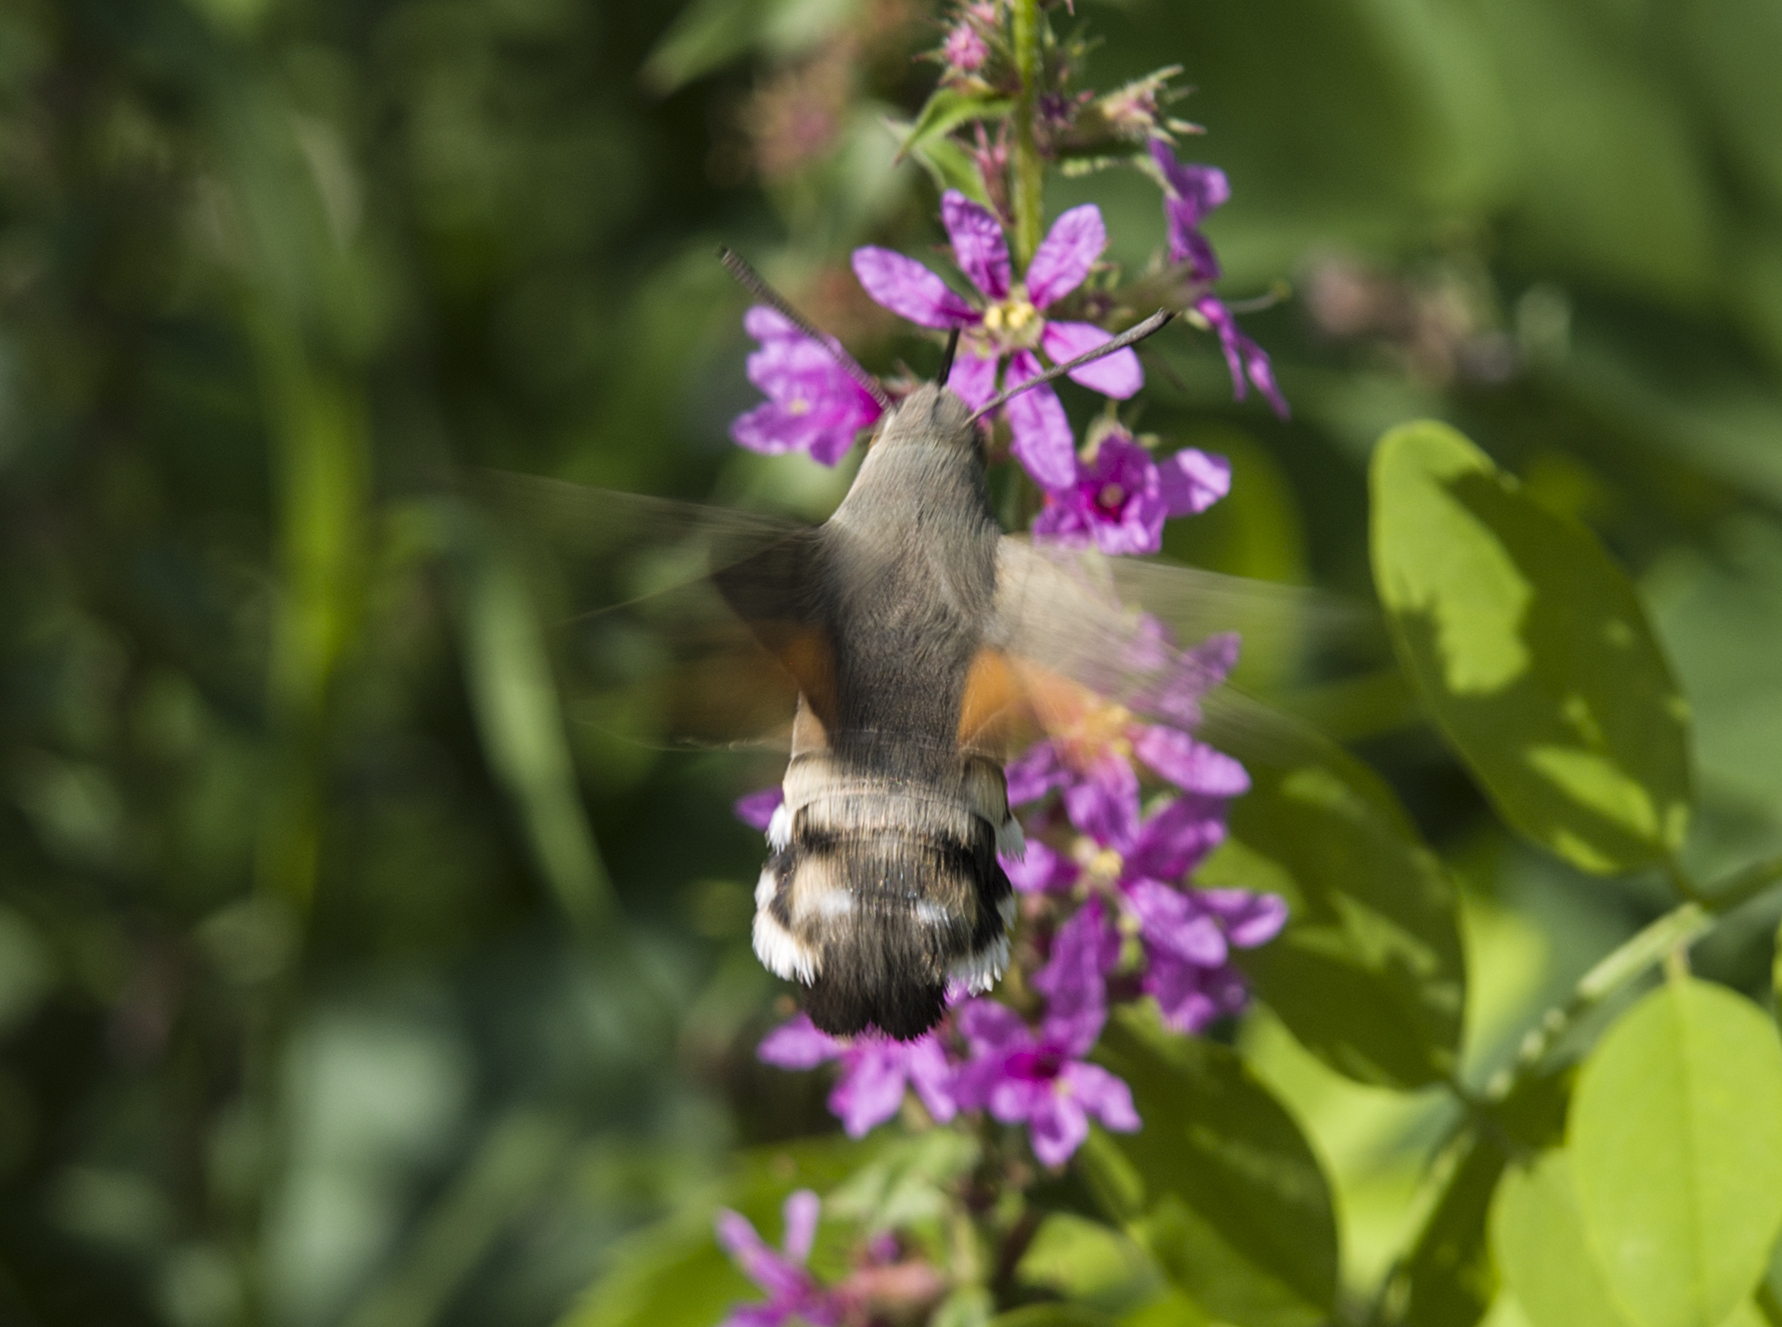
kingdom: Animalia
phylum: Arthropoda
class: Insecta
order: Lepidoptera
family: Sphingidae
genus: Macroglossum
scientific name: Macroglossum stellatarum
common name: Humming-bird hawk-moth
